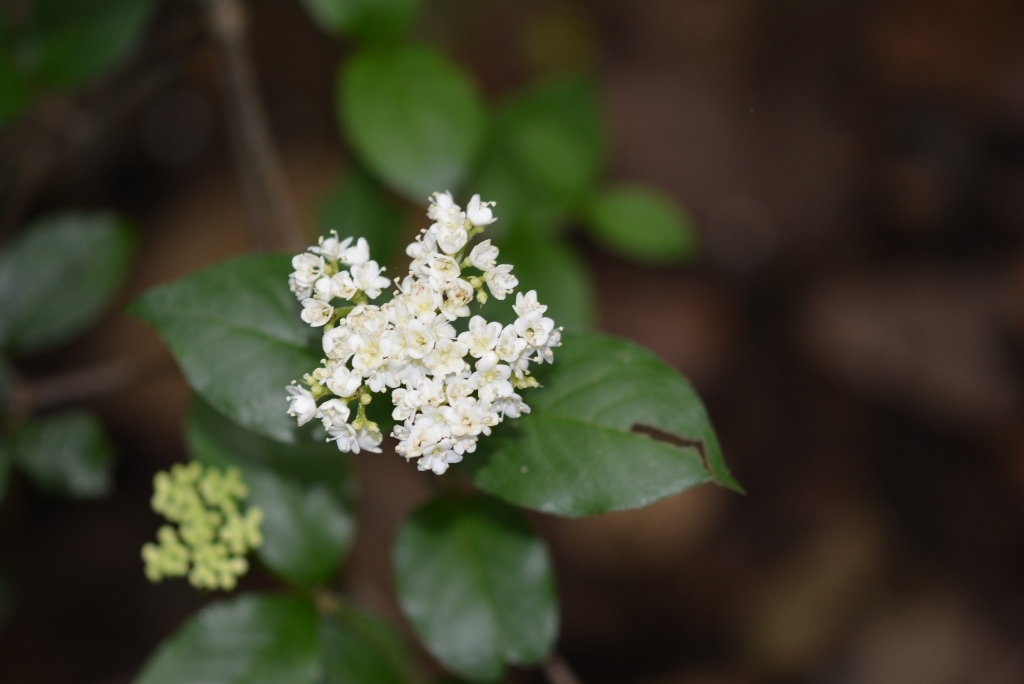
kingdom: Plantae
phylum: Tracheophyta
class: Magnoliopsida
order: Dipsacales
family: Viburnaceae
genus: Viburnum
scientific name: Viburnum lautum
